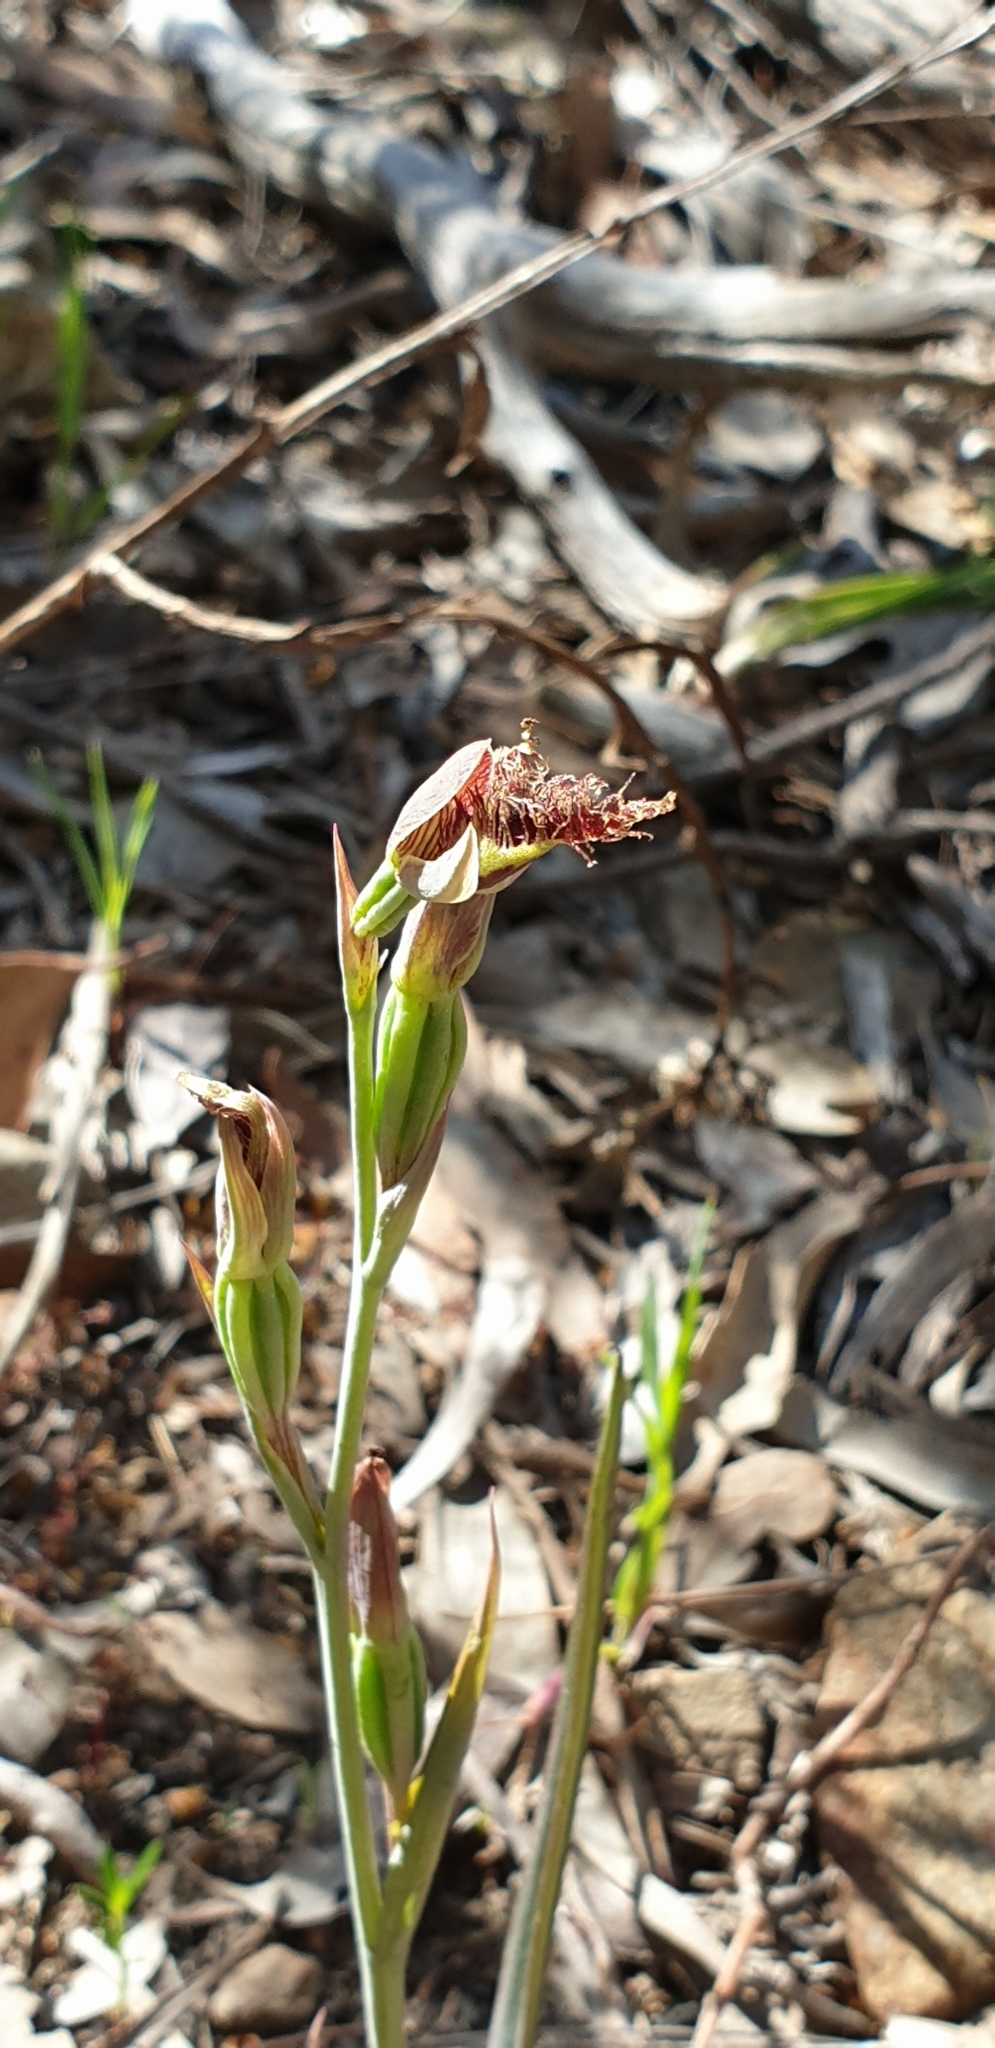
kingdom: Plantae
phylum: Tracheophyta
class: Liliopsida
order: Asparagales
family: Orchidaceae
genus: Calochilus
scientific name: Calochilus robertsonii
